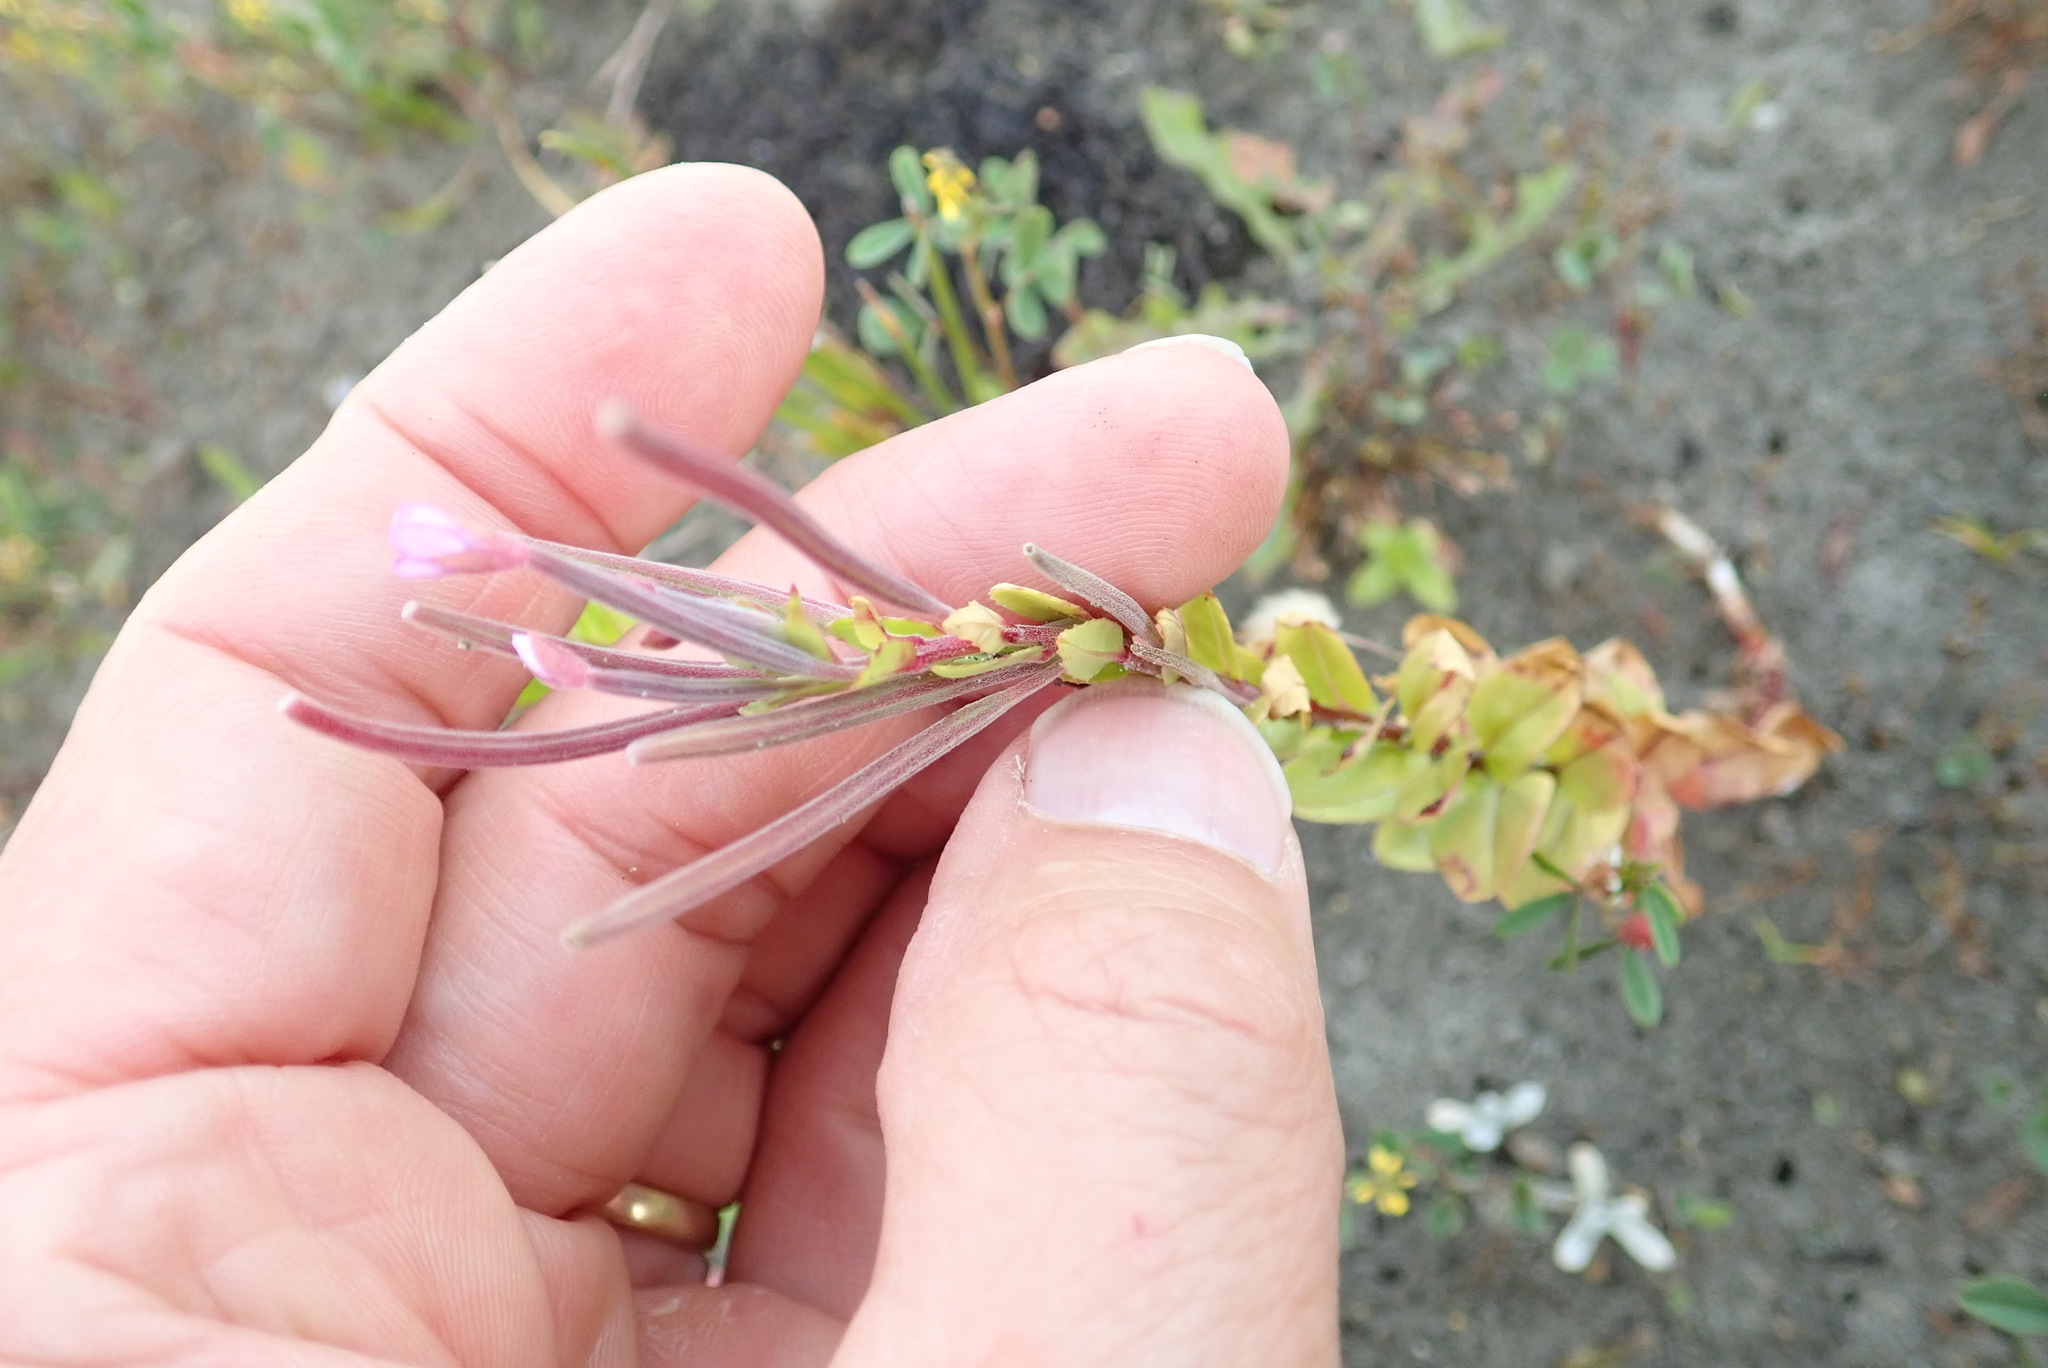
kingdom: Plantae
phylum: Tracheophyta
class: Magnoliopsida
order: Myrtales
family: Onagraceae
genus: Epilobium
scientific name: Epilobium billardiereanum
